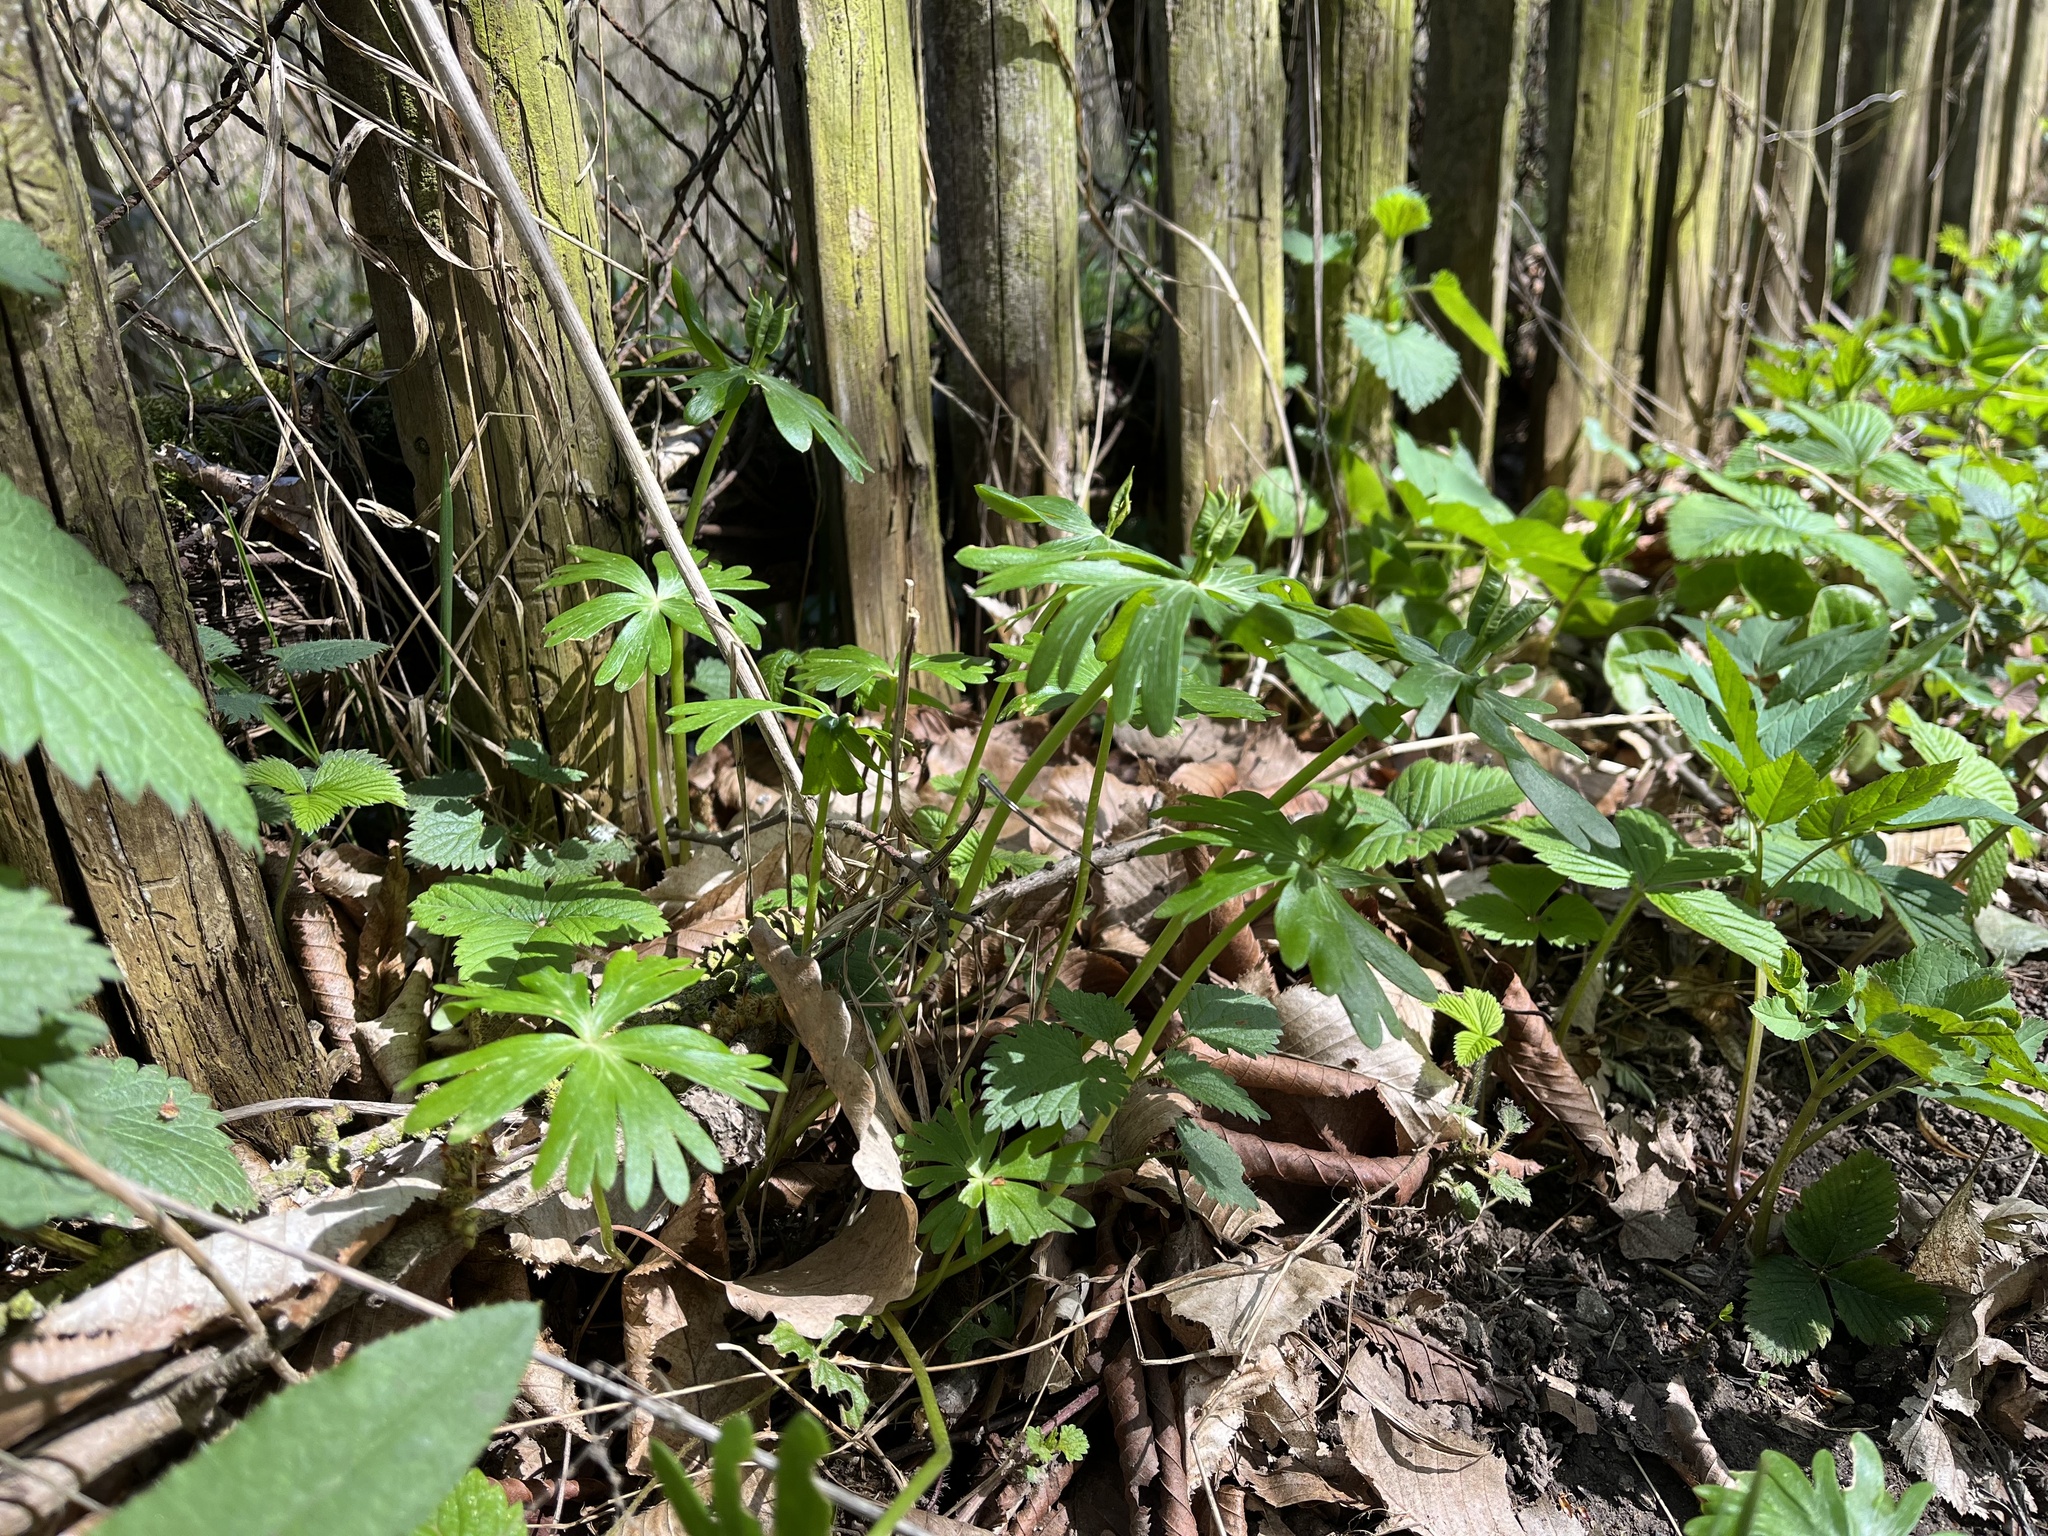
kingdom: Plantae
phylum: Tracheophyta
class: Magnoliopsida
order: Ranunculales
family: Ranunculaceae
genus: Eranthis
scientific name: Eranthis hyemalis
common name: Winter aconite
